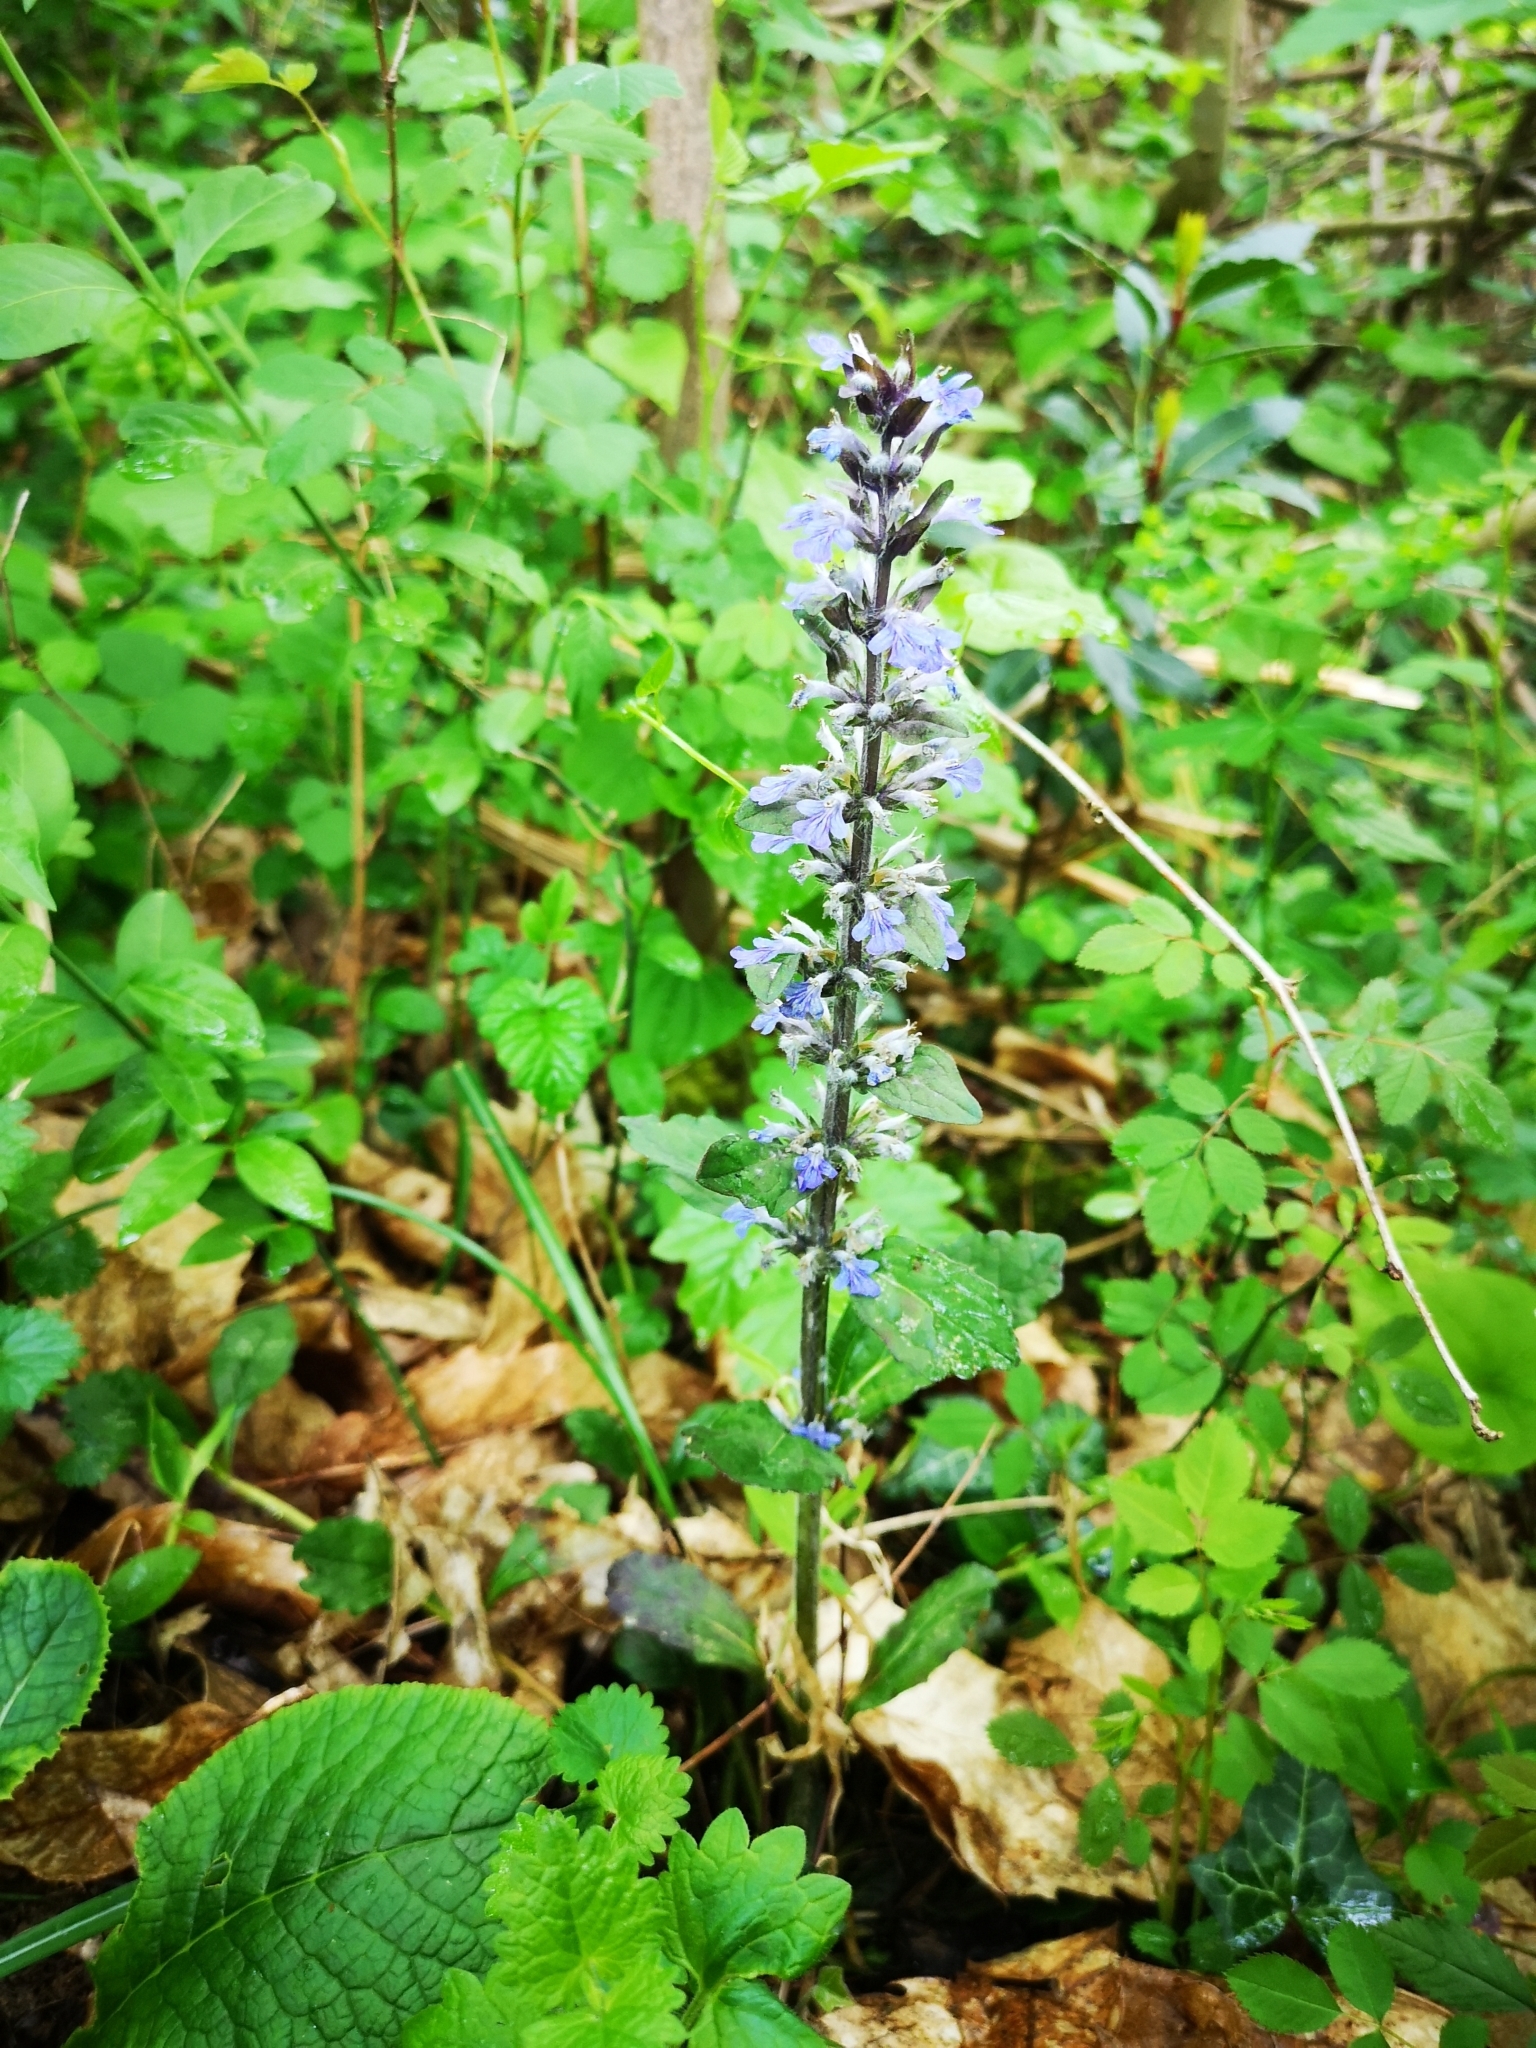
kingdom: Plantae
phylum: Tracheophyta
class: Magnoliopsida
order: Lamiales
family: Lamiaceae
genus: Ajuga
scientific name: Ajuga reptans
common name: Bugle
